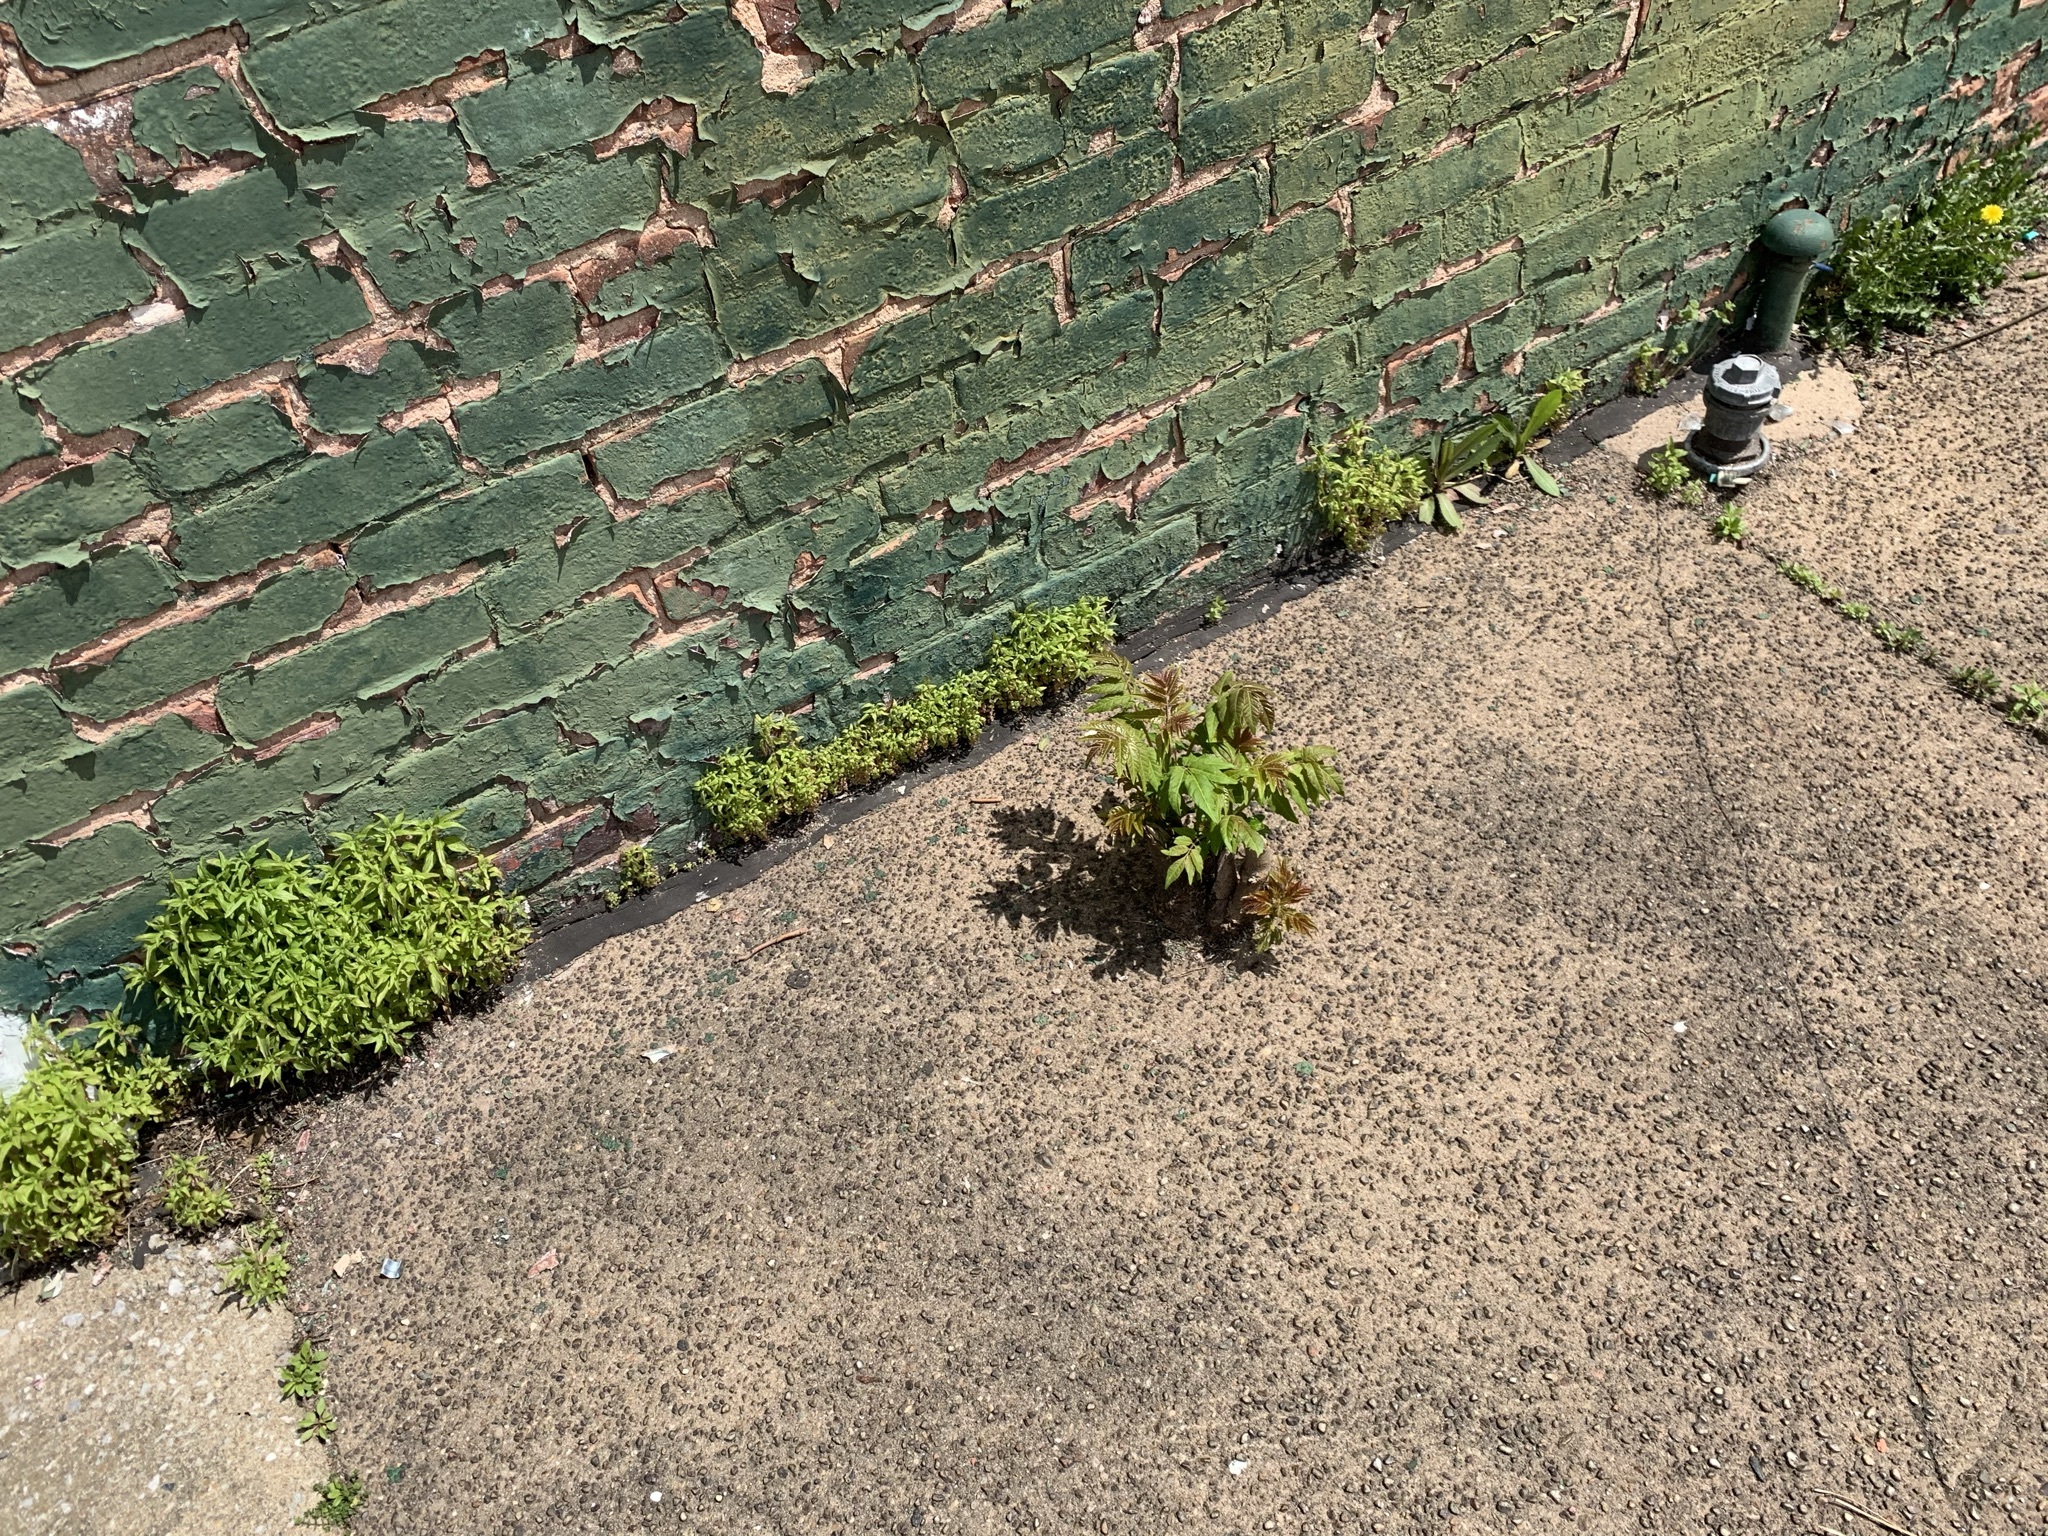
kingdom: Plantae
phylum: Tracheophyta
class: Magnoliopsida
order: Sapindales
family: Simaroubaceae
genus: Ailanthus
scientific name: Ailanthus altissima
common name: Tree-of-heaven
